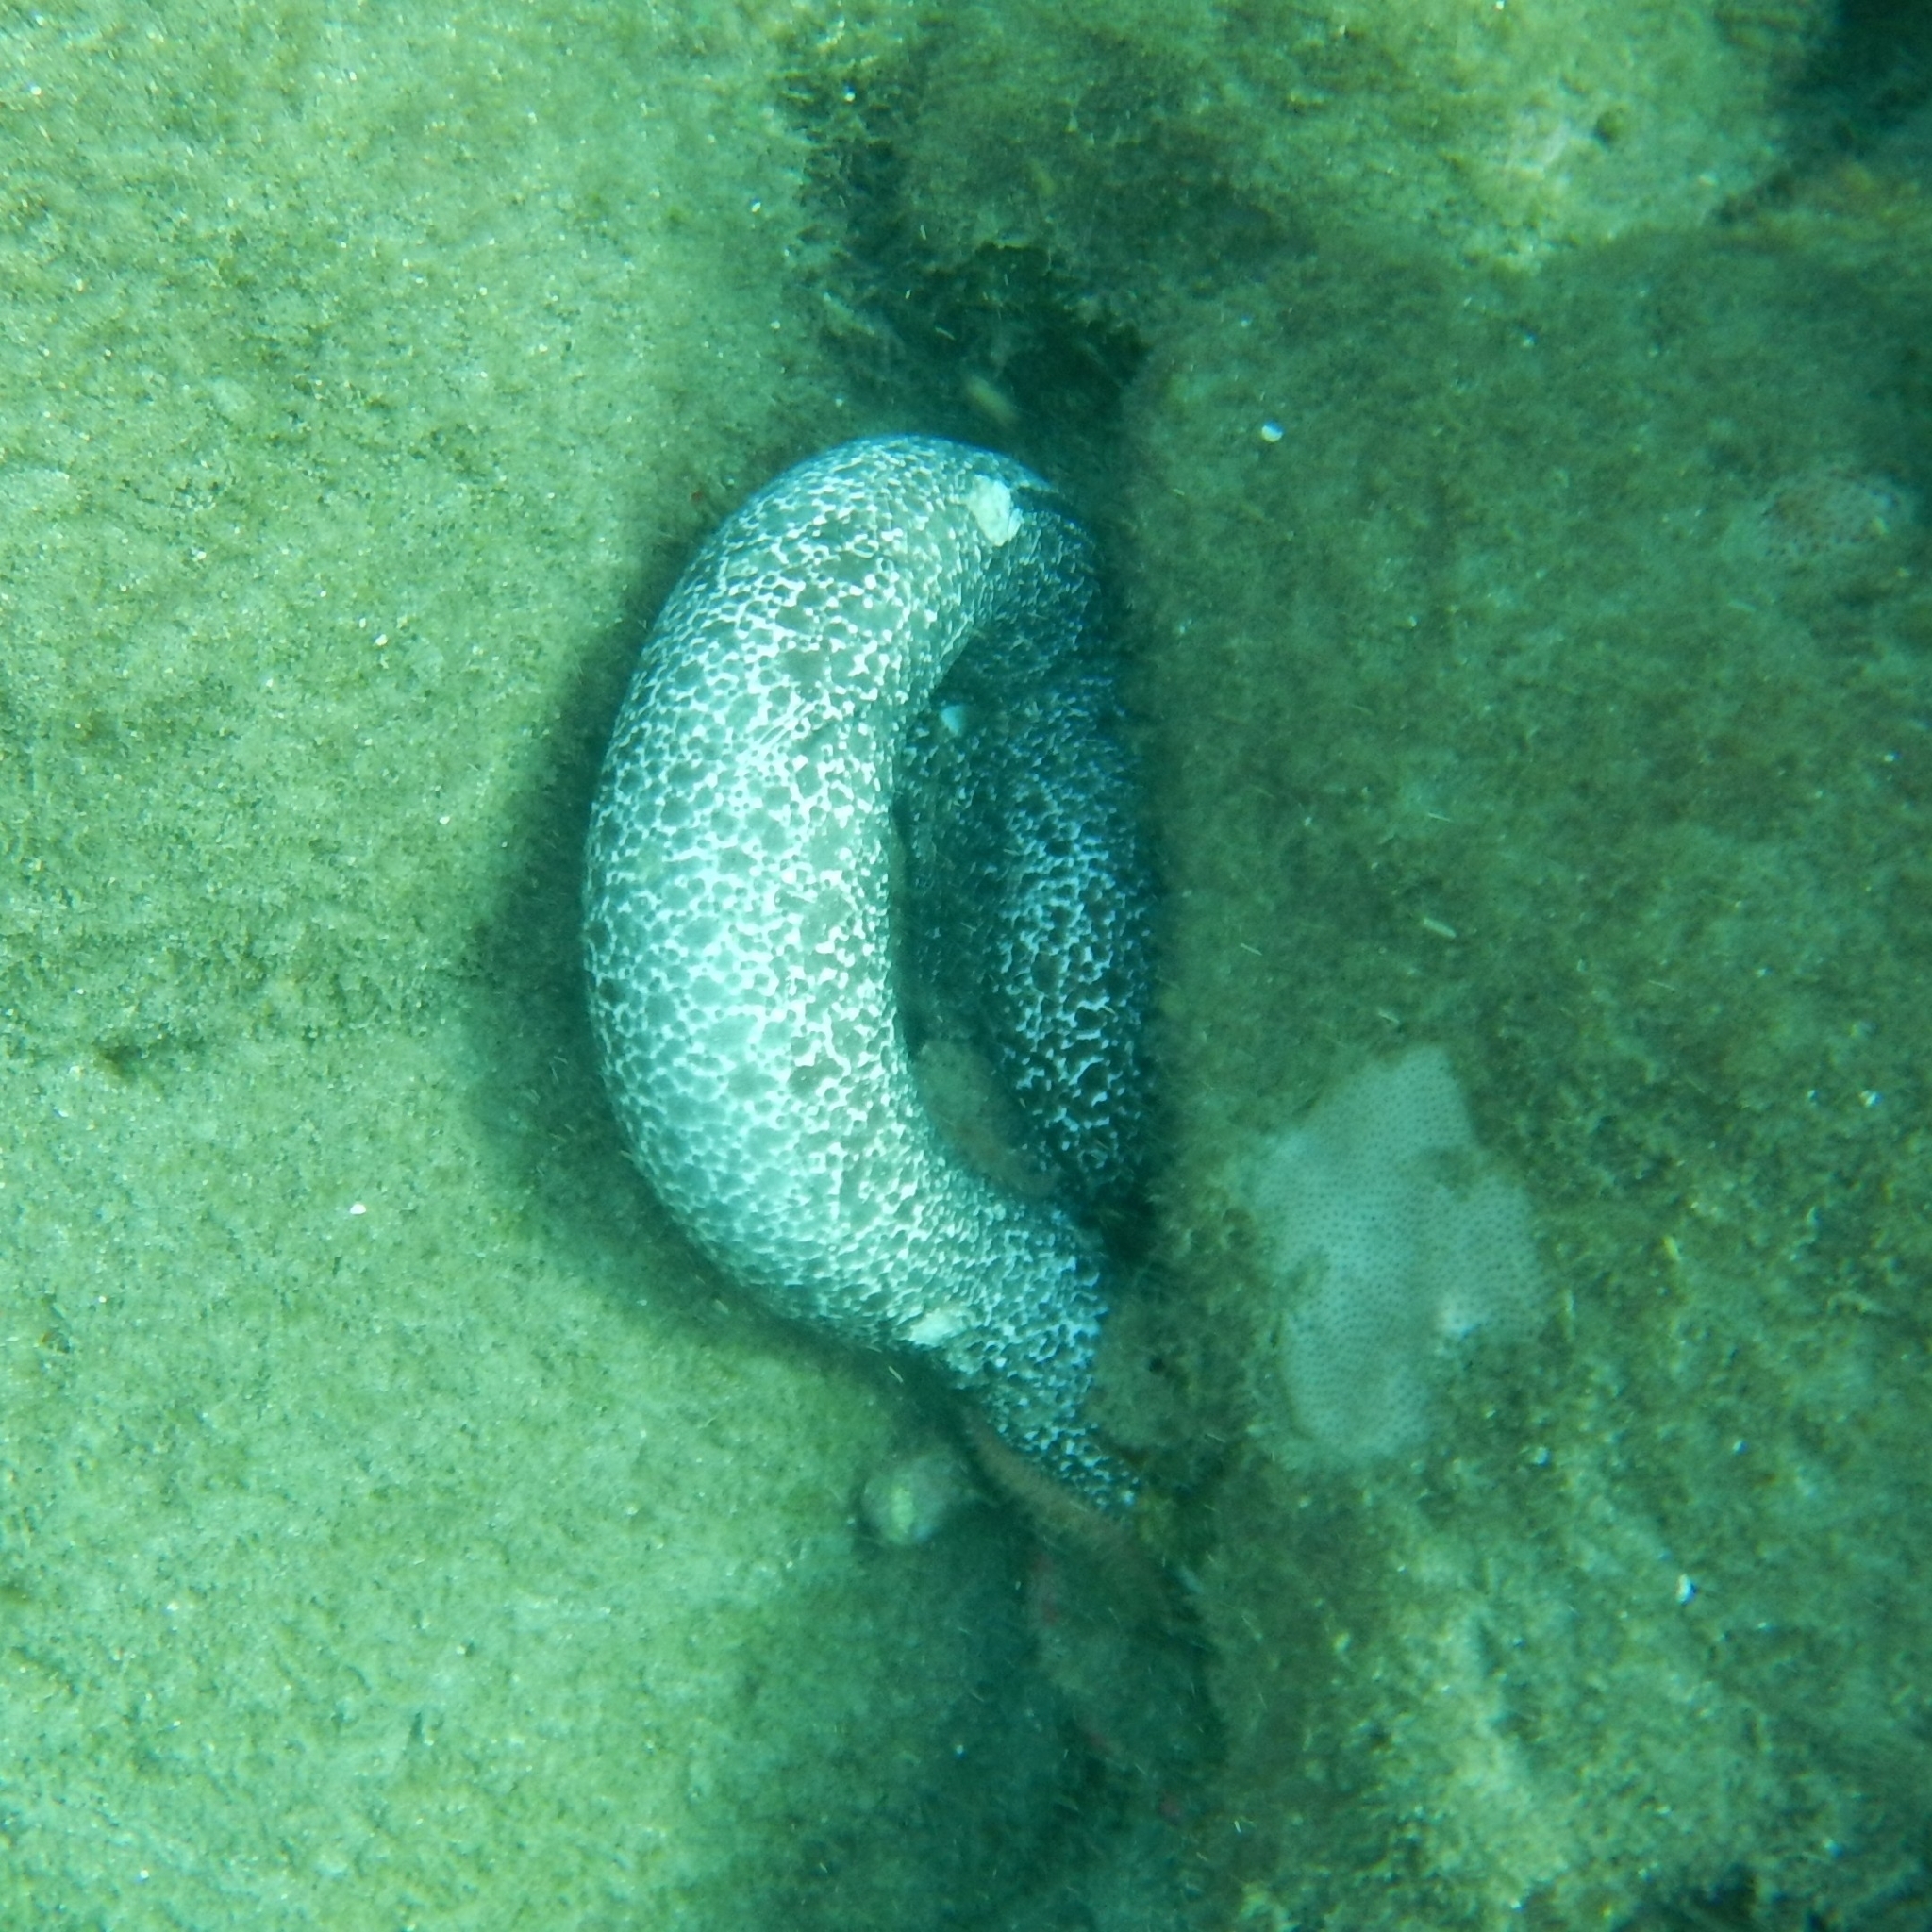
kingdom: Animalia
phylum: Chordata
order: Anguilliformes
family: Muraenidae
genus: Gymnothorax
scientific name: Gymnothorax moringa
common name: Spotted moray
